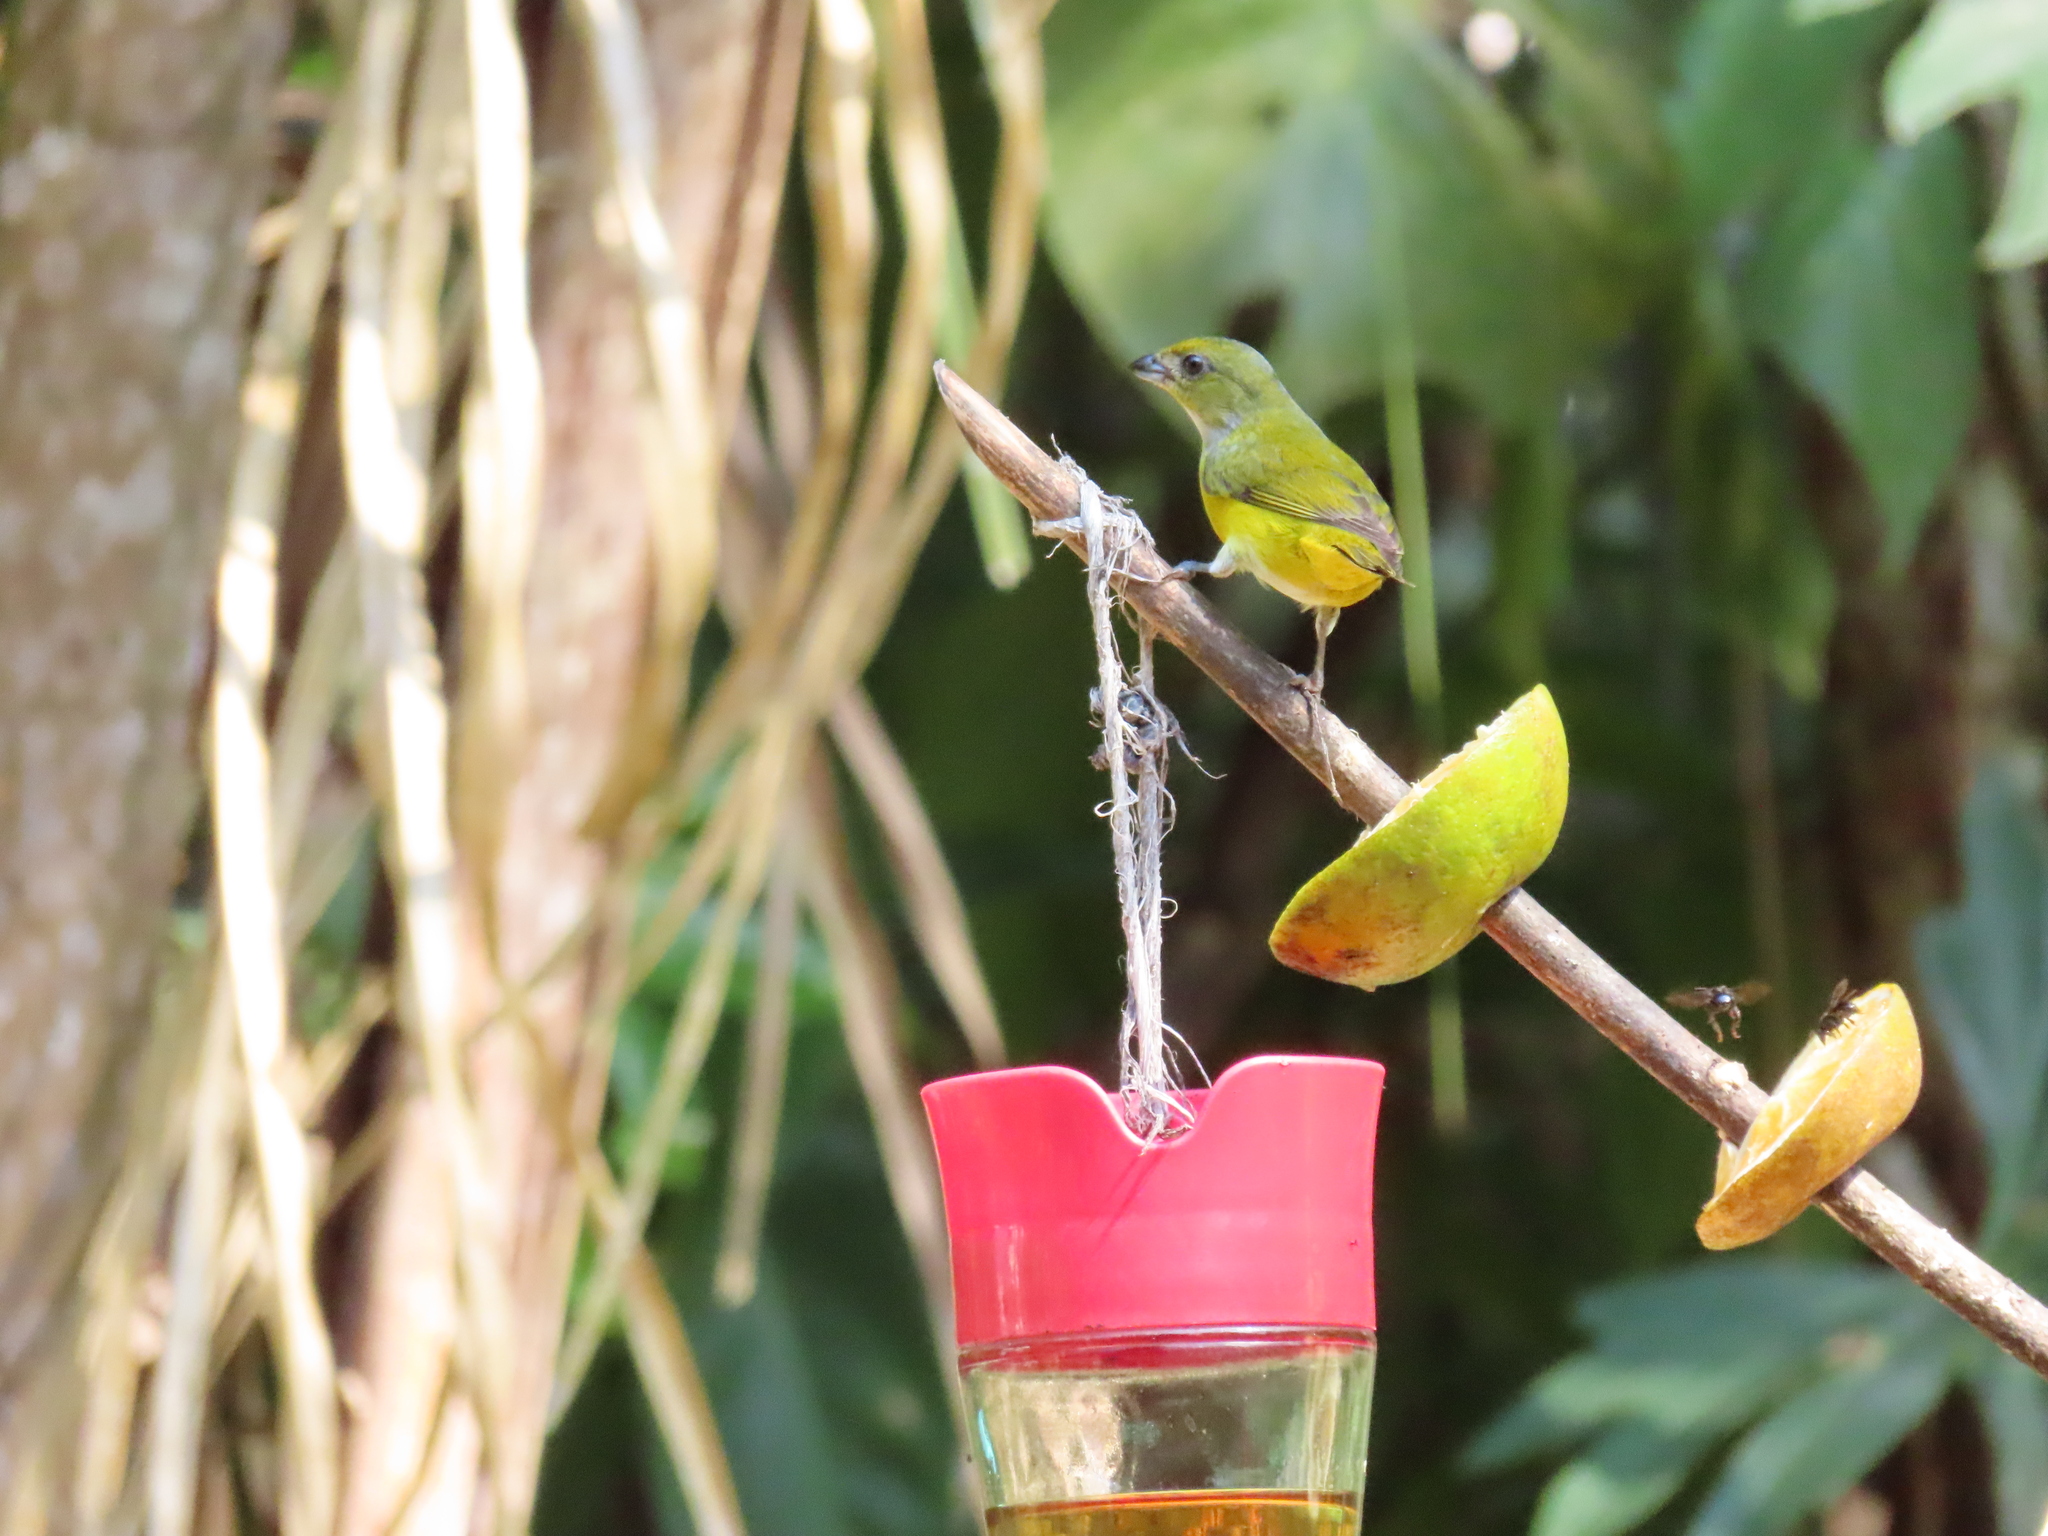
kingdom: Animalia
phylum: Chordata
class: Aves
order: Passeriformes
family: Fringillidae
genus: Euphonia
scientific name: Euphonia hirundinacea
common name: Yellow-throated euphonia
